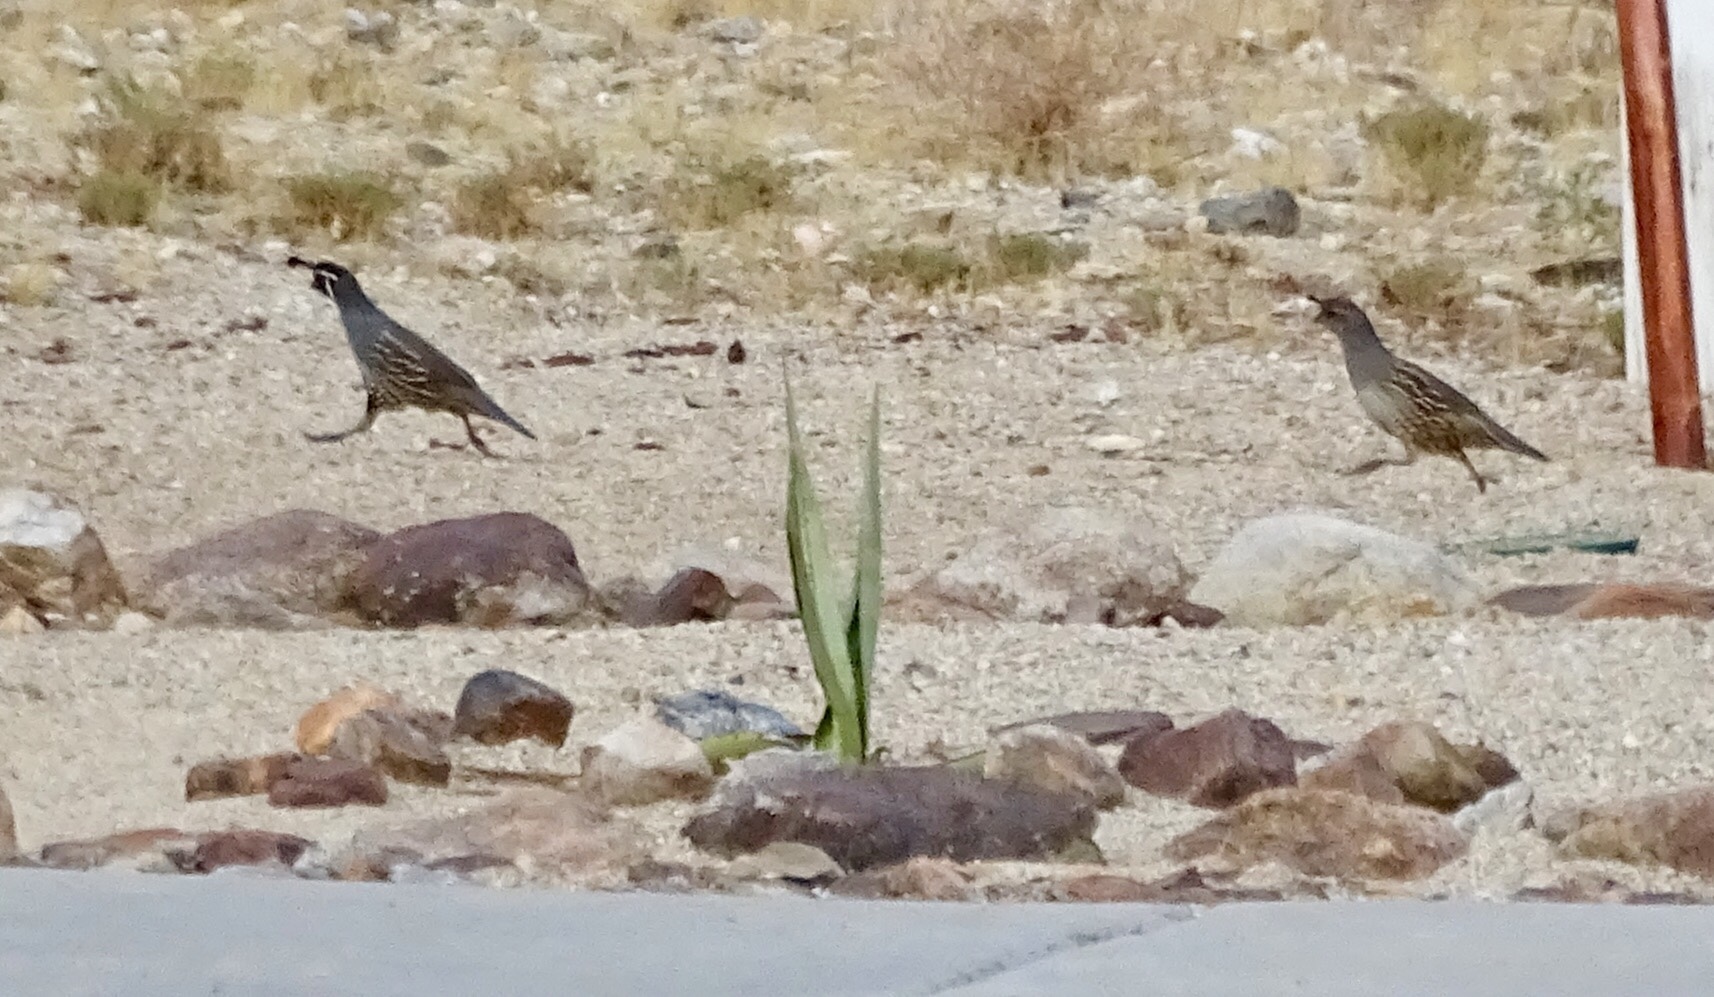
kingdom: Animalia
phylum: Chordata
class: Aves
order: Galliformes
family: Odontophoridae
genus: Callipepla
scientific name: Callipepla californica
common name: California quail
